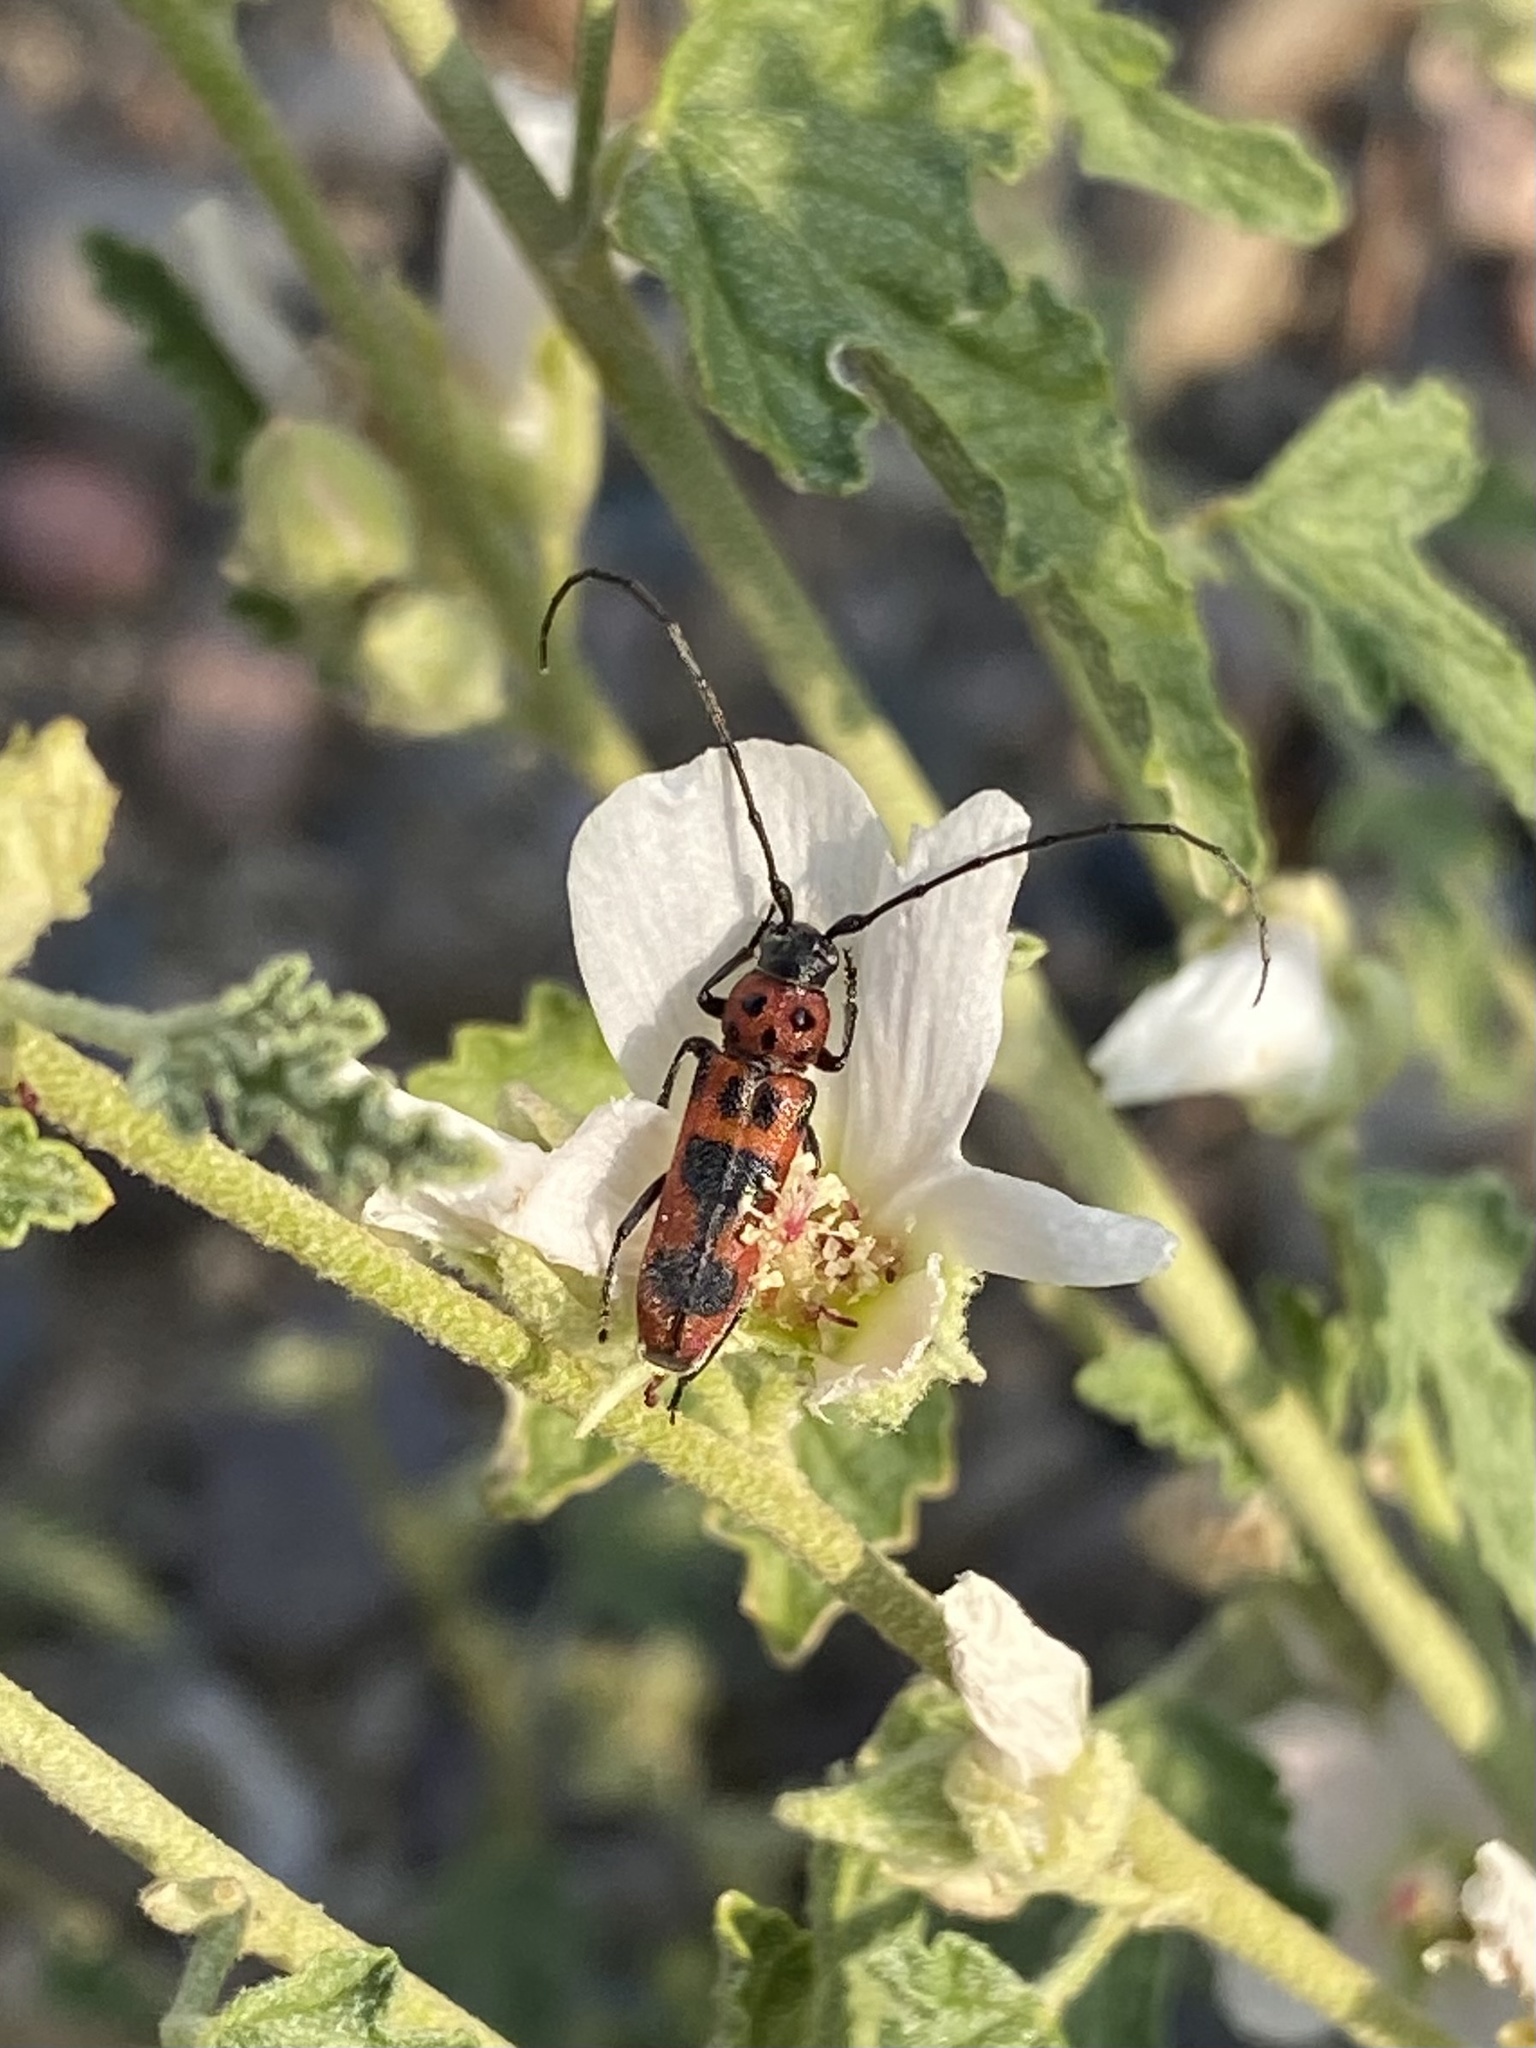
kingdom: Animalia
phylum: Arthropoda
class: Insecta
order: Coleoptera
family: Cerambycidae
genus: Tylosis
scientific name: Tylosis maculatus
